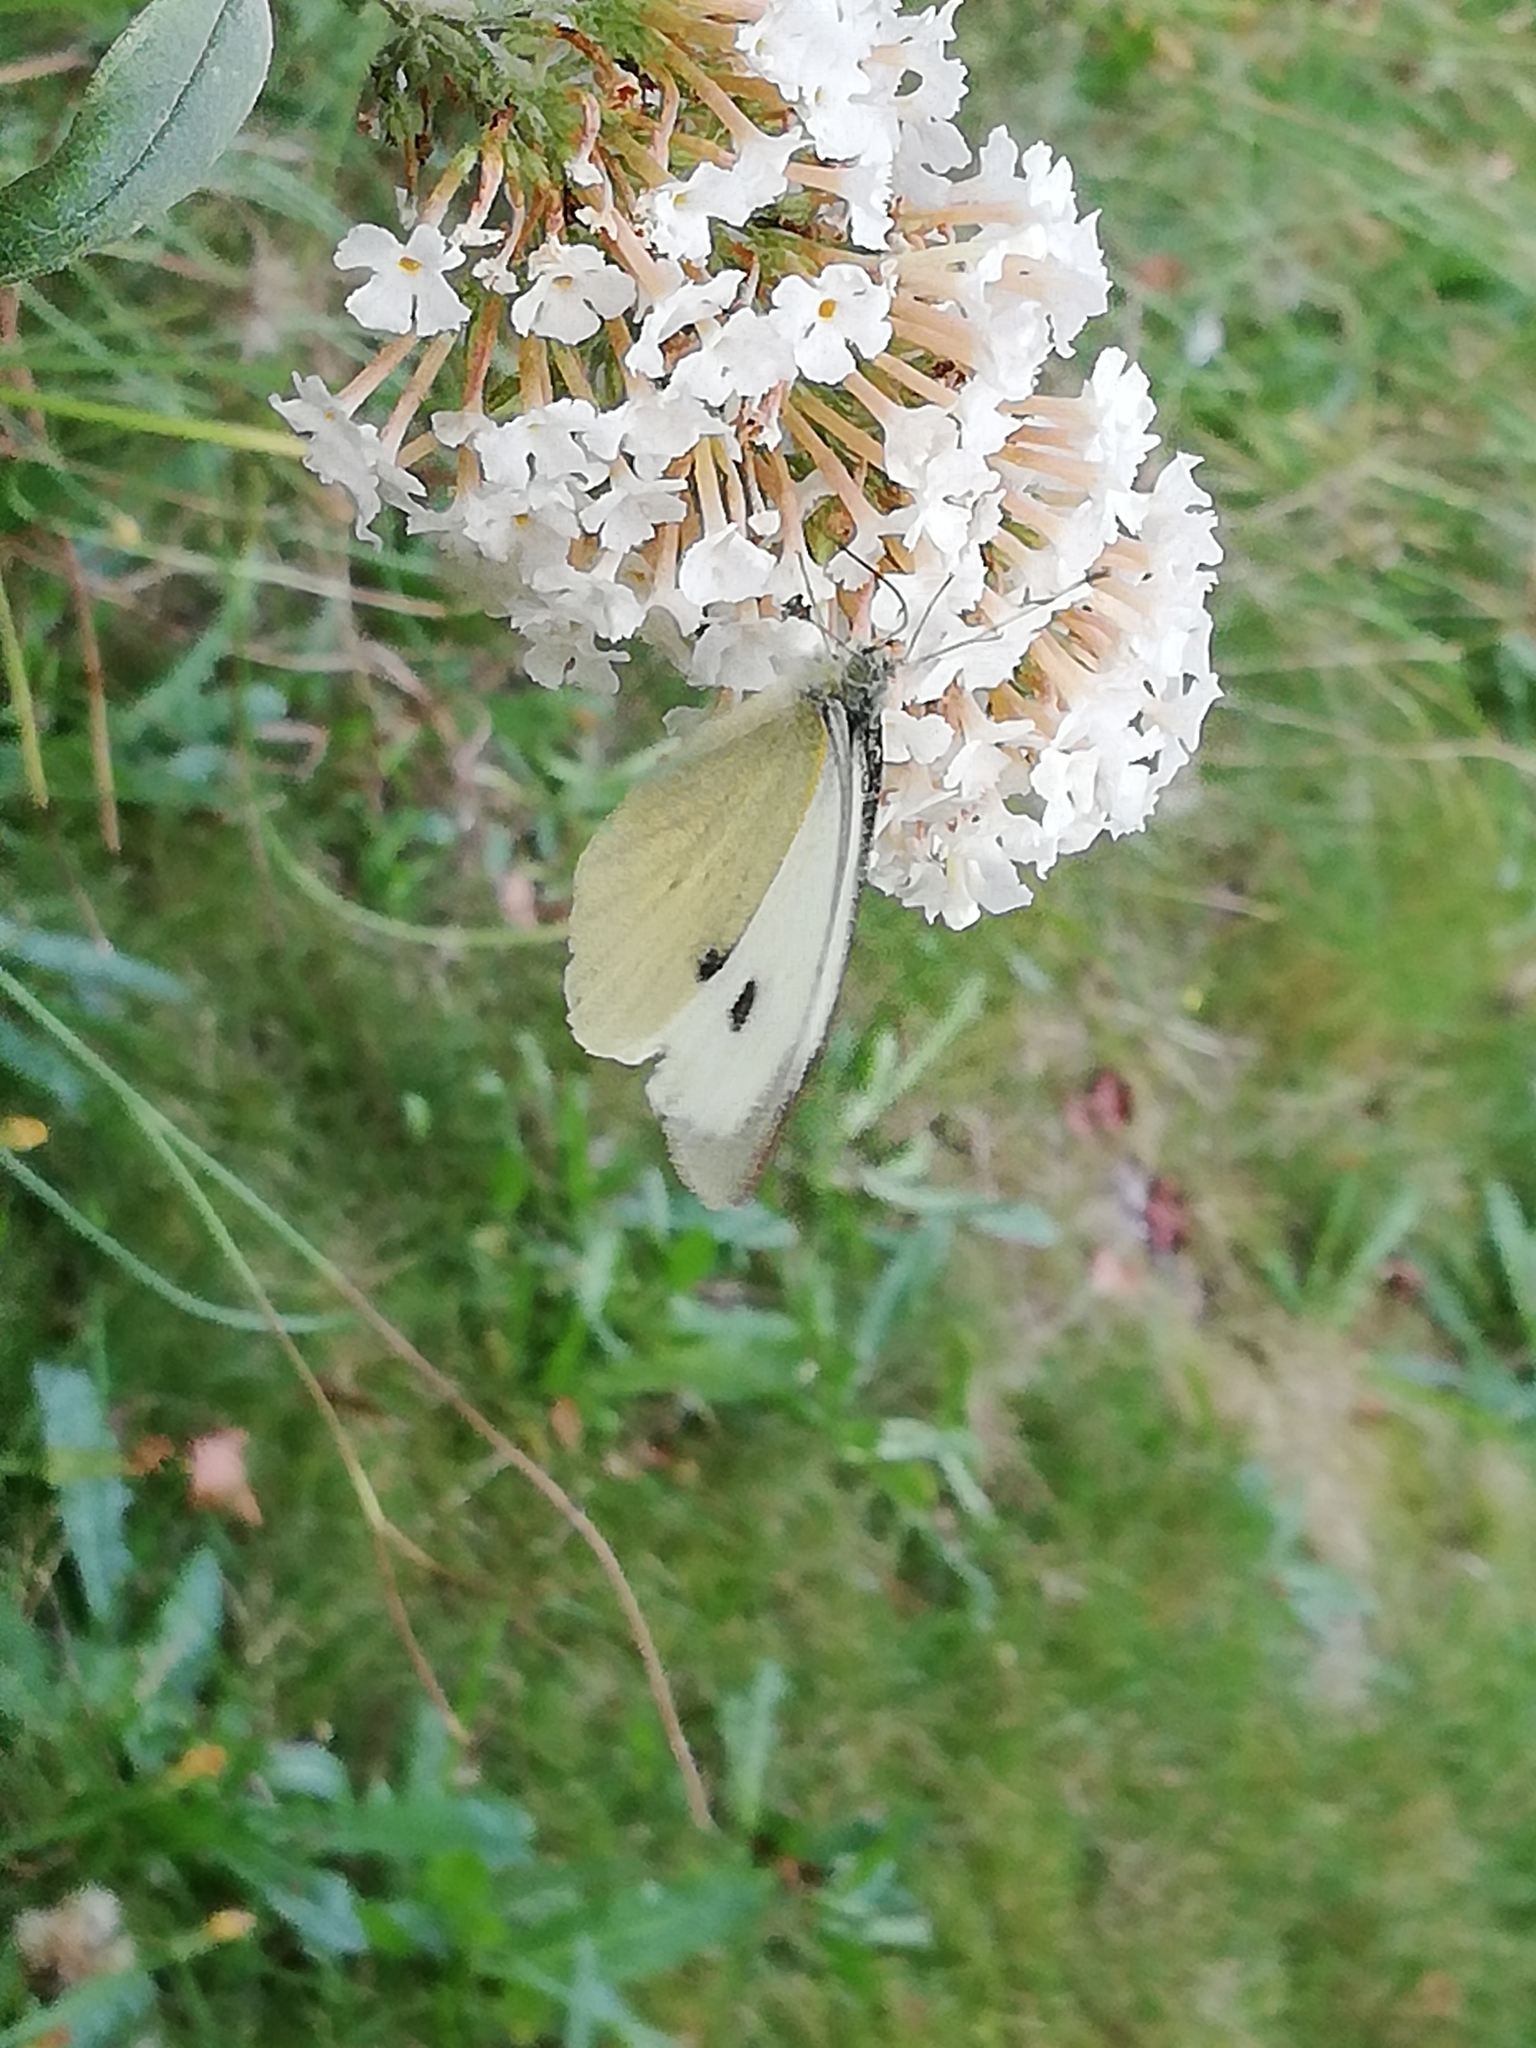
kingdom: Animalia
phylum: Arthropoda
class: Insecta
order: Lepidoptera
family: Pieridae
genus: Pieris
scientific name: Pieris brassicae
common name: Large white
